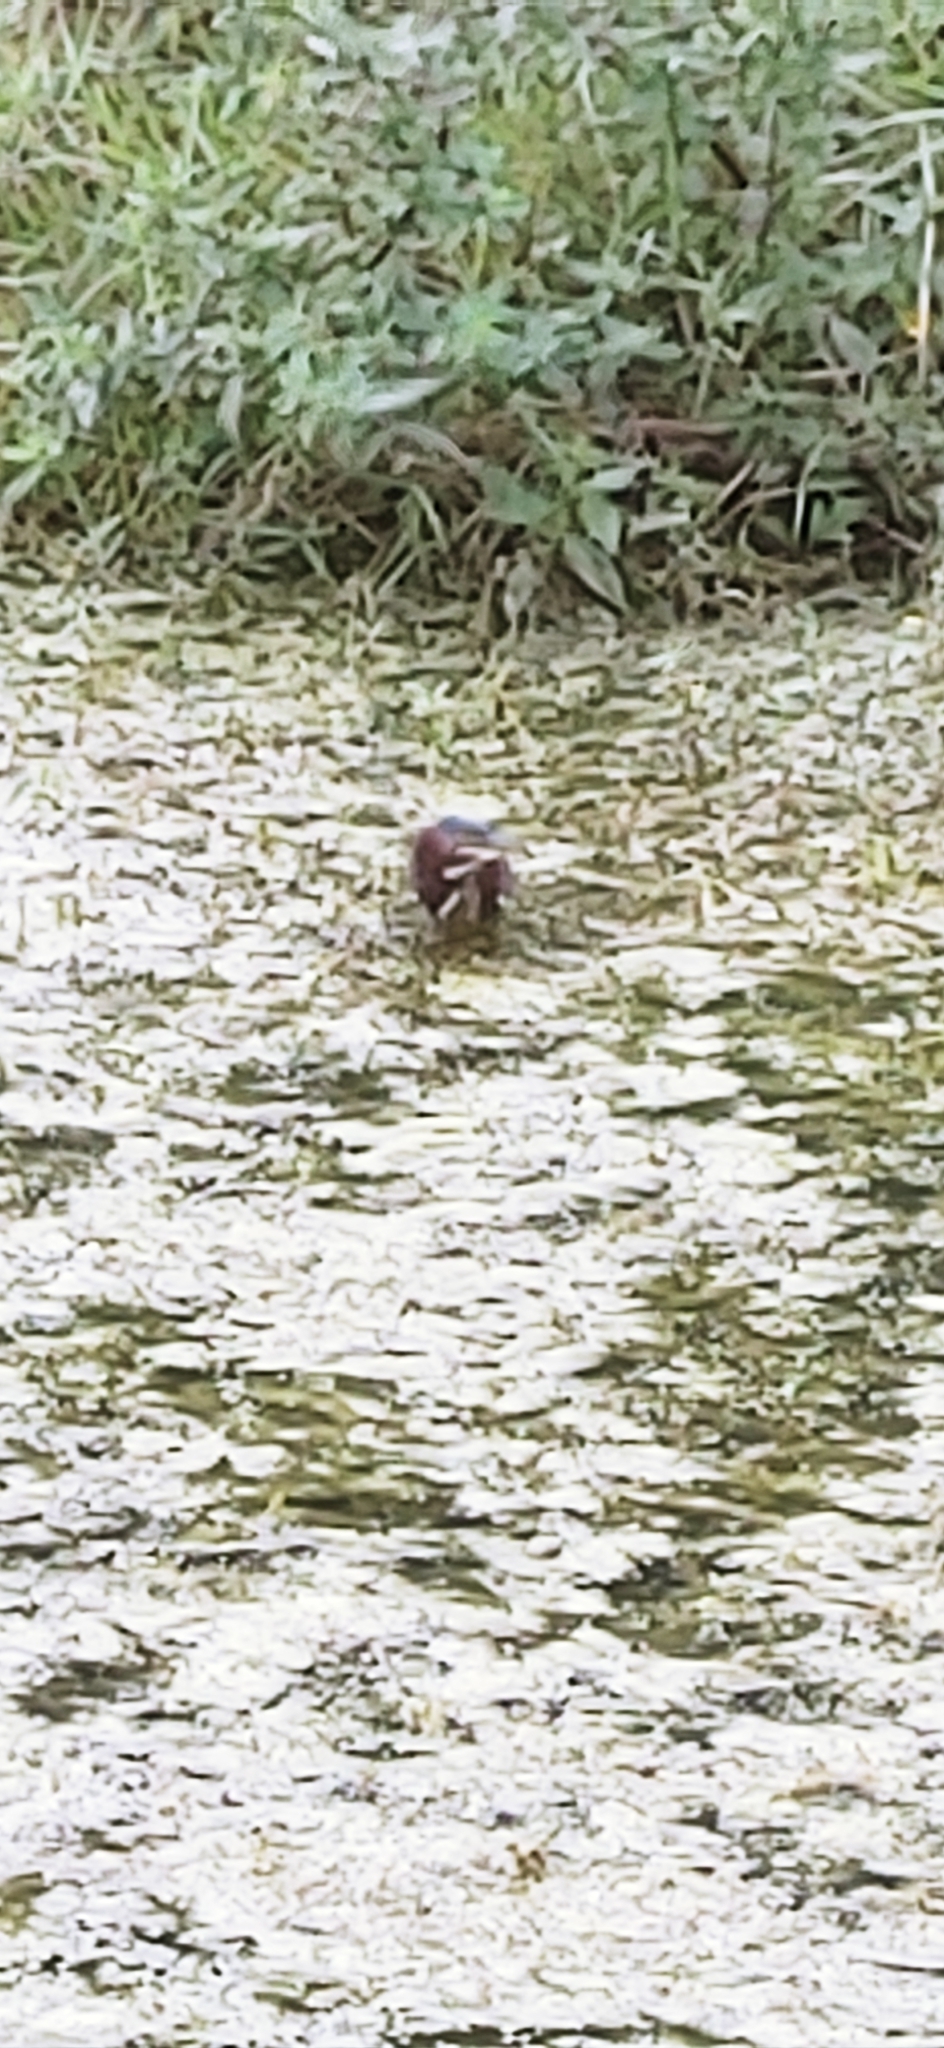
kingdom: Animalia
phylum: Chordata
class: Aves
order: Pelecaniformes
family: Ardeidae
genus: Butorides
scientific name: Butorides virescens
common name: Green heron
